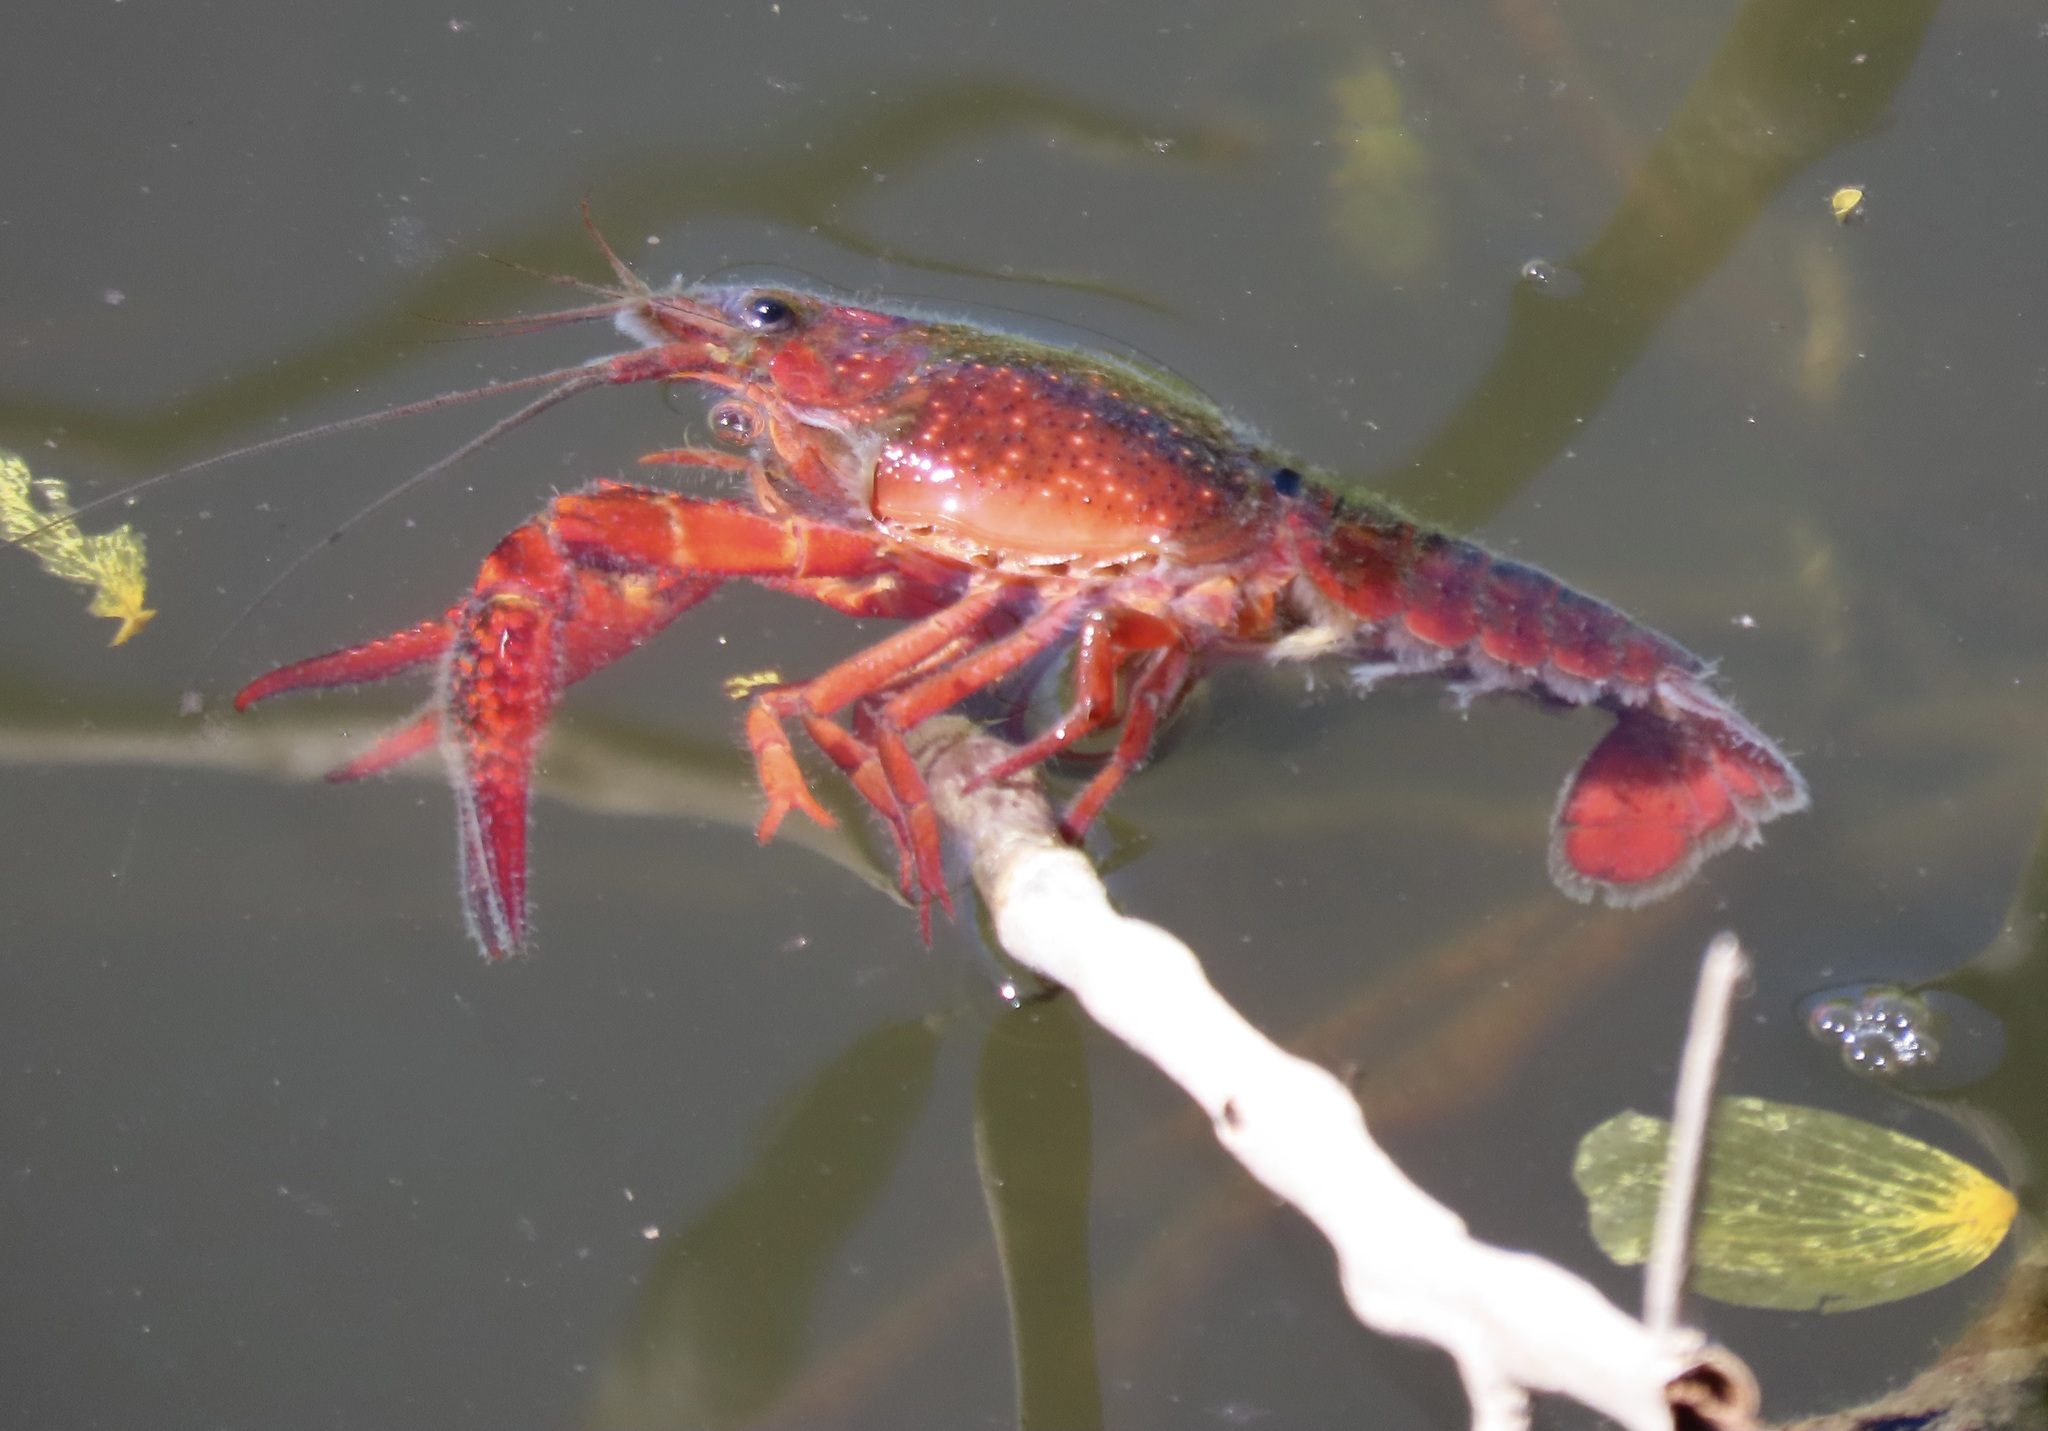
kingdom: Animalia
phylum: Arthropoda
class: Malacostraca
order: Decapoda
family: Cambaridae
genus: Procambarus
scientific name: Procambarus clarkii
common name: Red swamp crayfish
